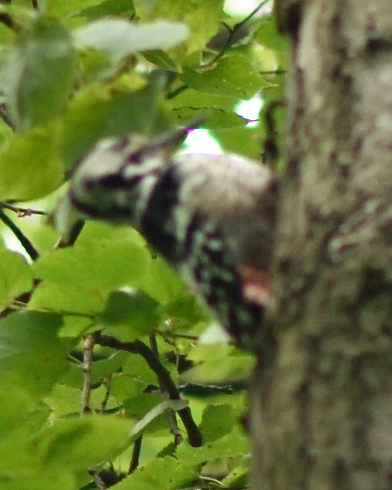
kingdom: Animalia
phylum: Chordata
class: Aves
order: Piciformes
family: Picidae
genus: Dendrocopos
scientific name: Dendrocopos leucotos
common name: White-backed woodpecker
